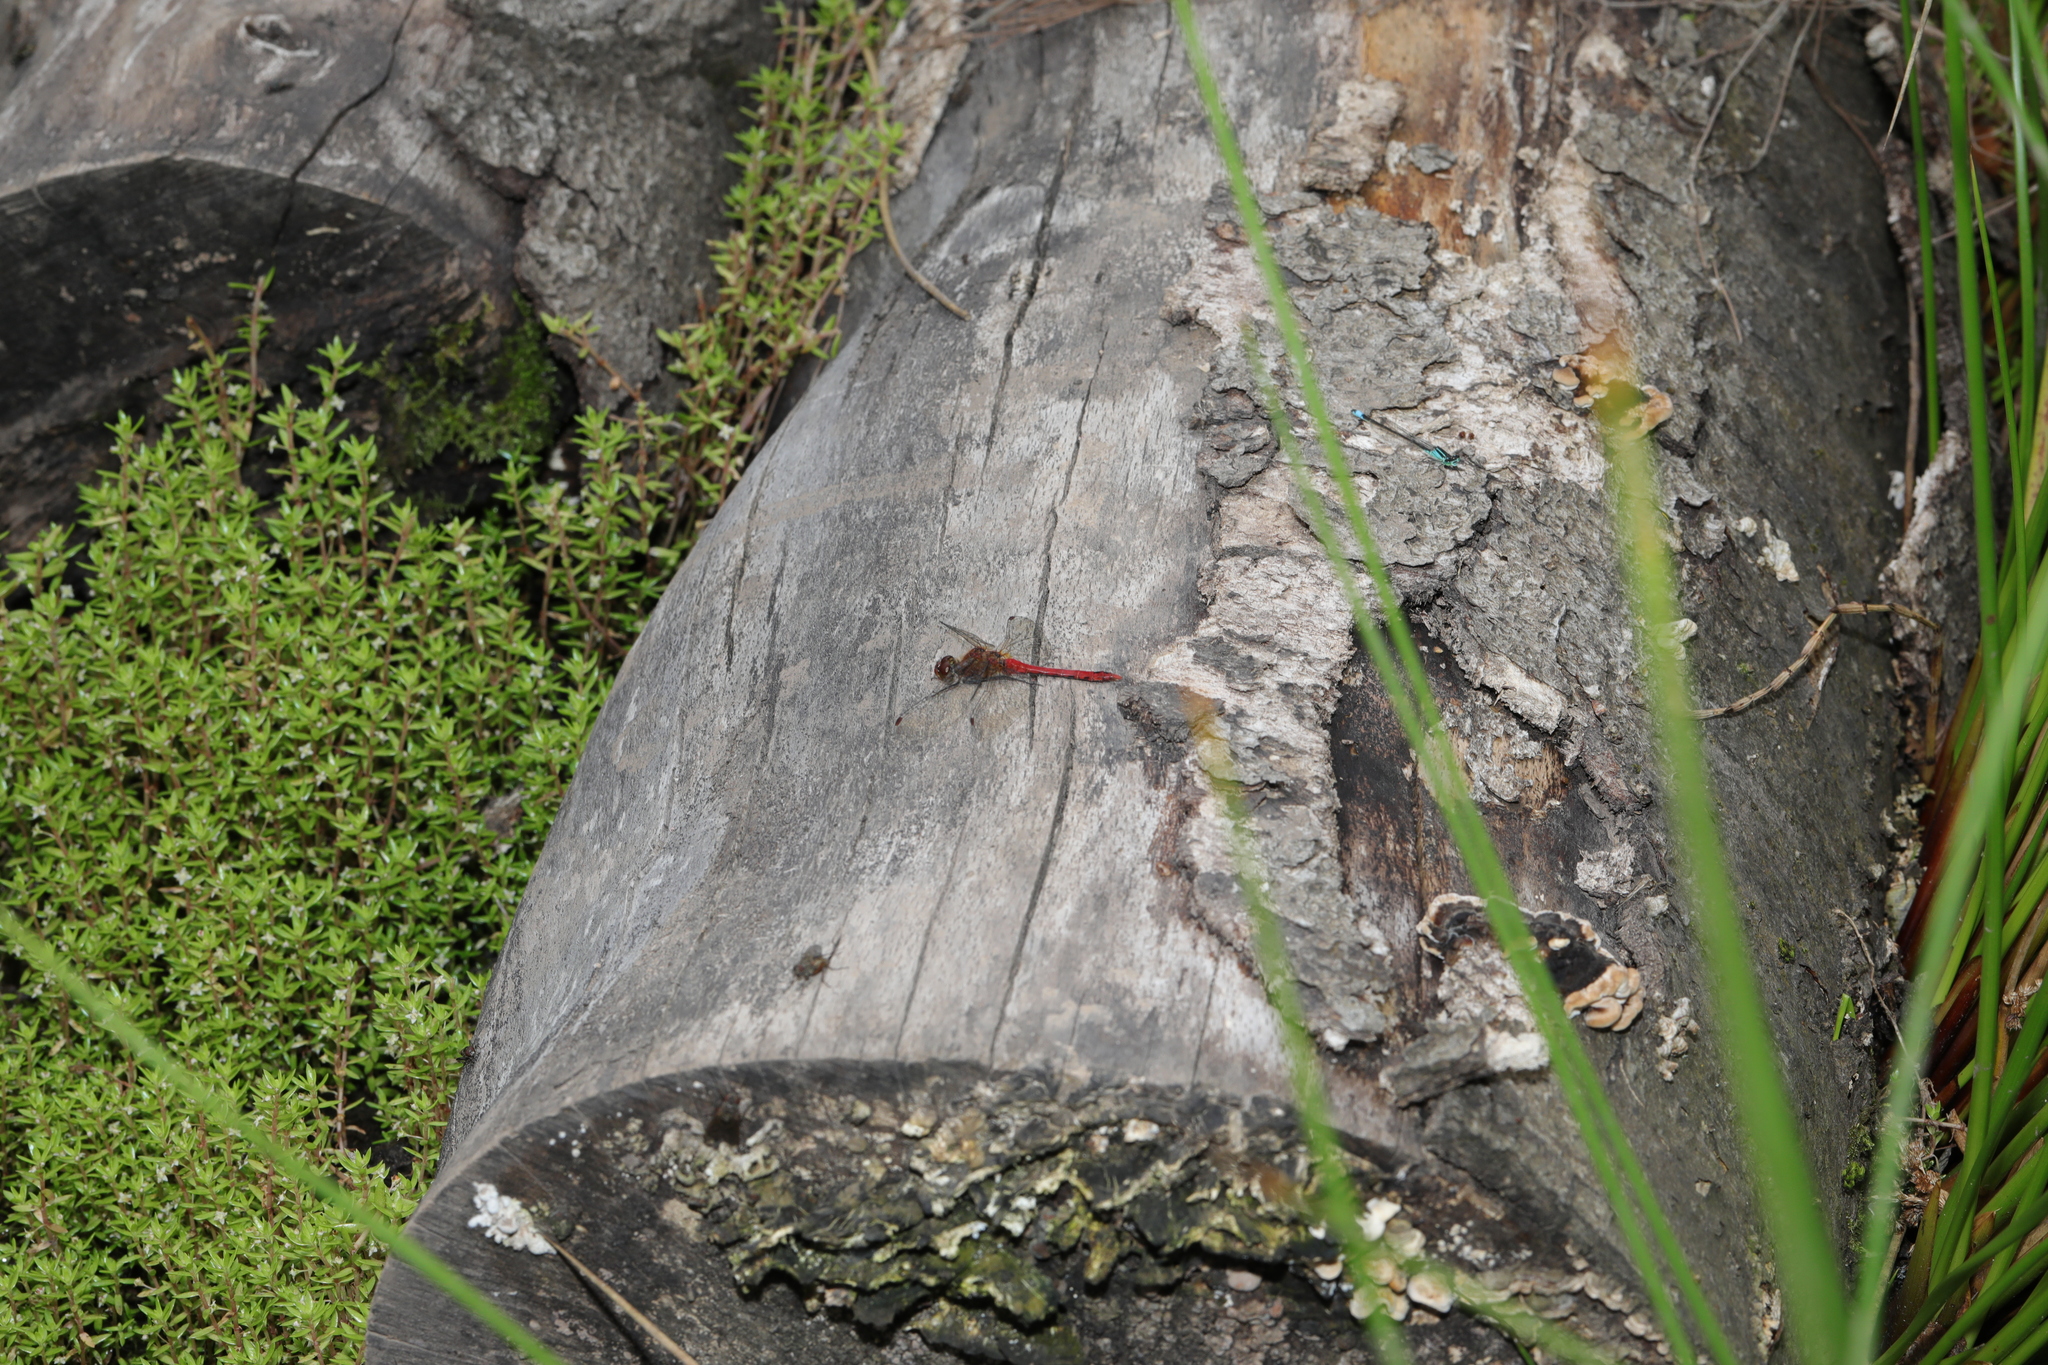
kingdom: Animalia
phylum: Arthropoda
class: Insecta
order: Odonata
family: Libellulidae
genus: Sympetrum
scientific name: Sympetrum sanguineum
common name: Ruddy darter
